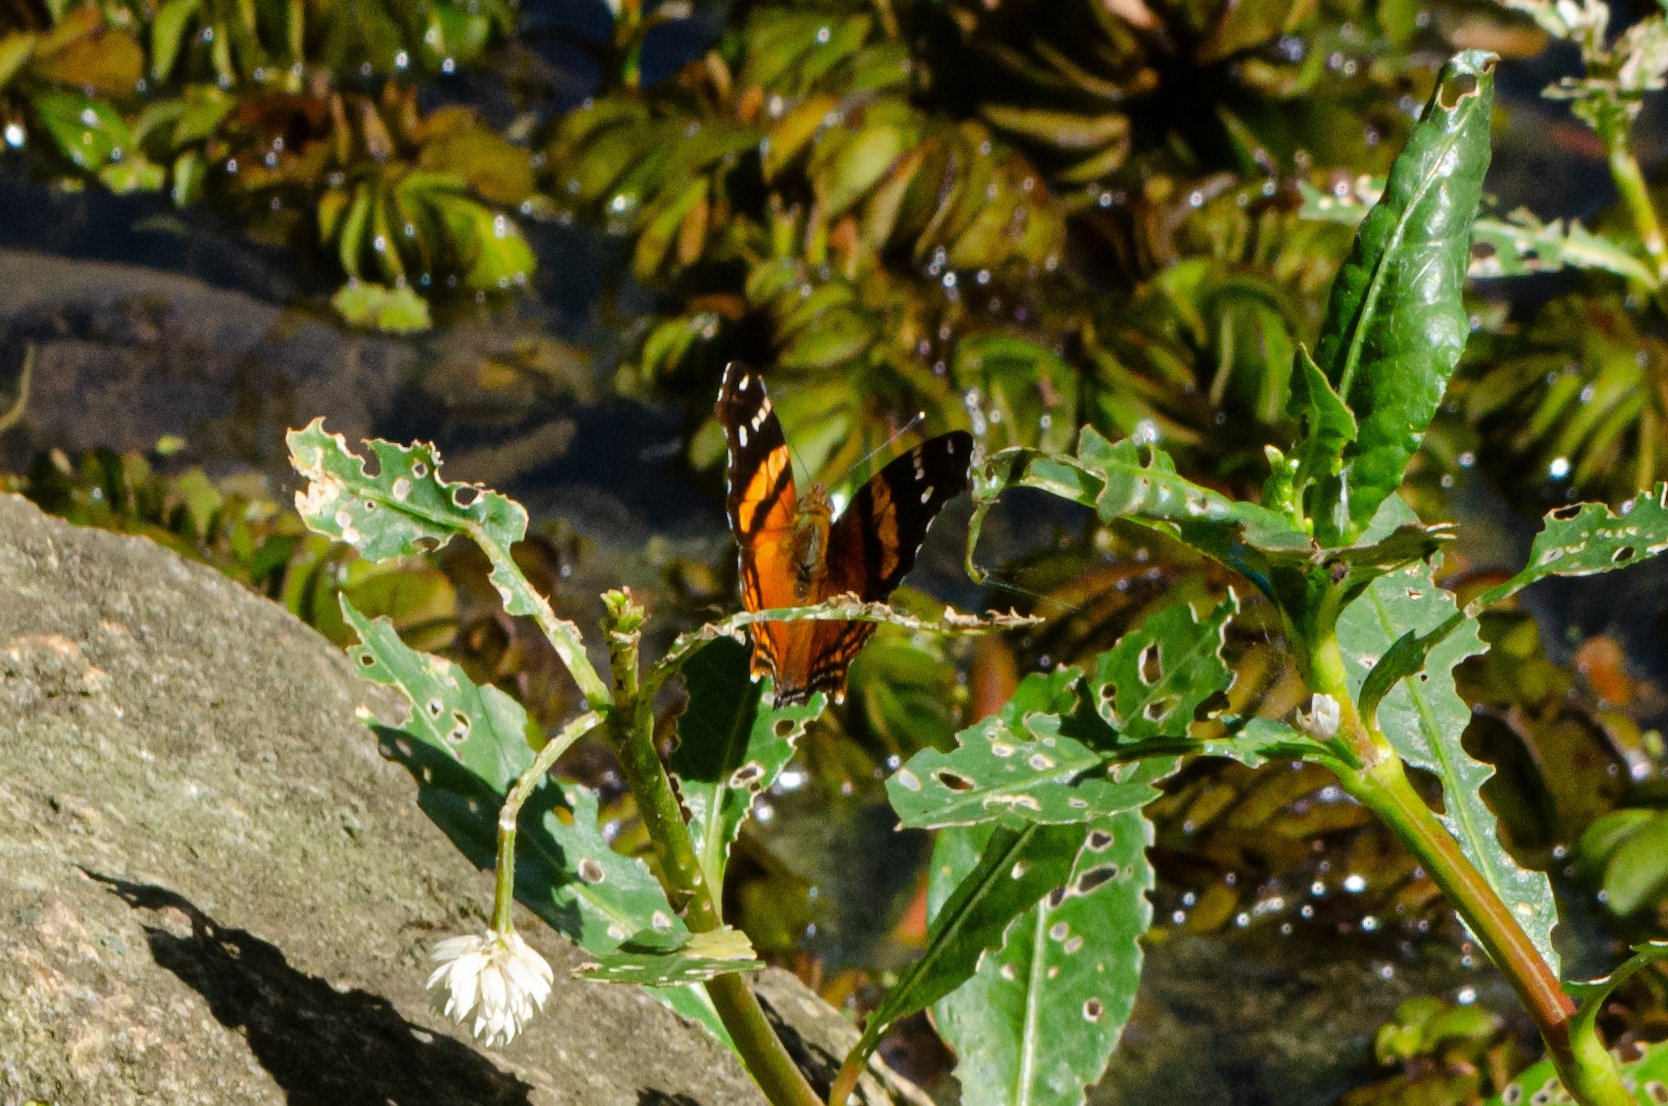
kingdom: Animalia
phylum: Arthropoda
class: Insecta
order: Lepidoptera
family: Nymphalidae
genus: Hypanartia
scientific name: Hypanartia bella
